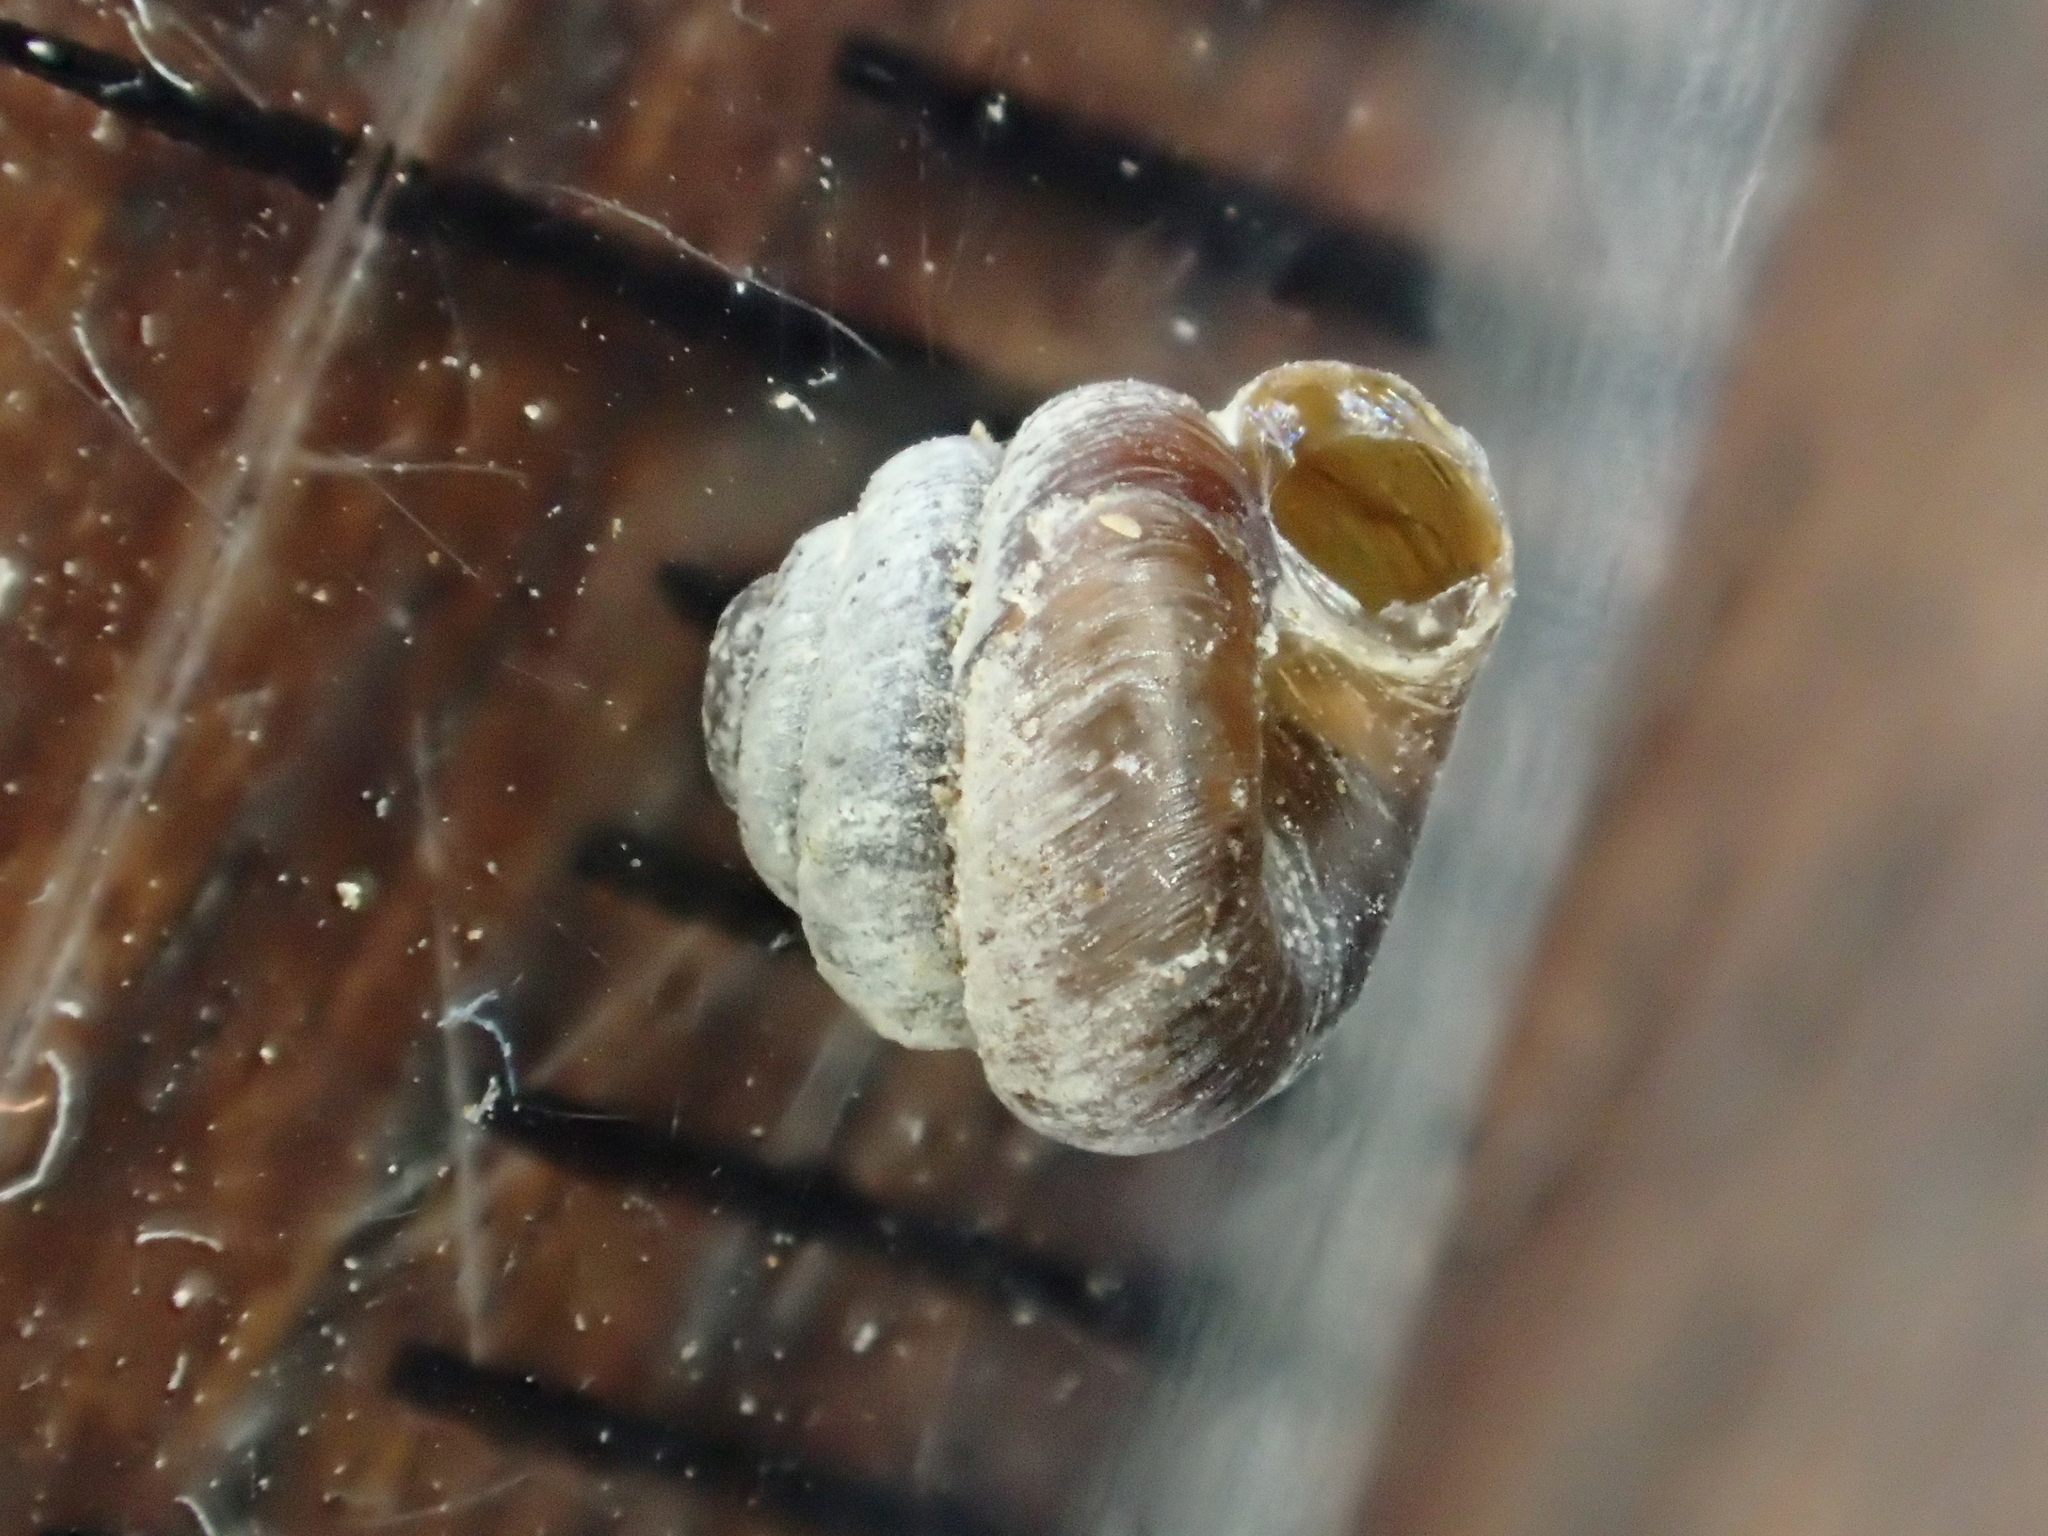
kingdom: Animalia
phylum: Mollusca
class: Gastropoda
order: Stylommatophora
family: Pyramidulidae
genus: Pyramidula
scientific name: Pyramidula rupestris
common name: Rock snail
